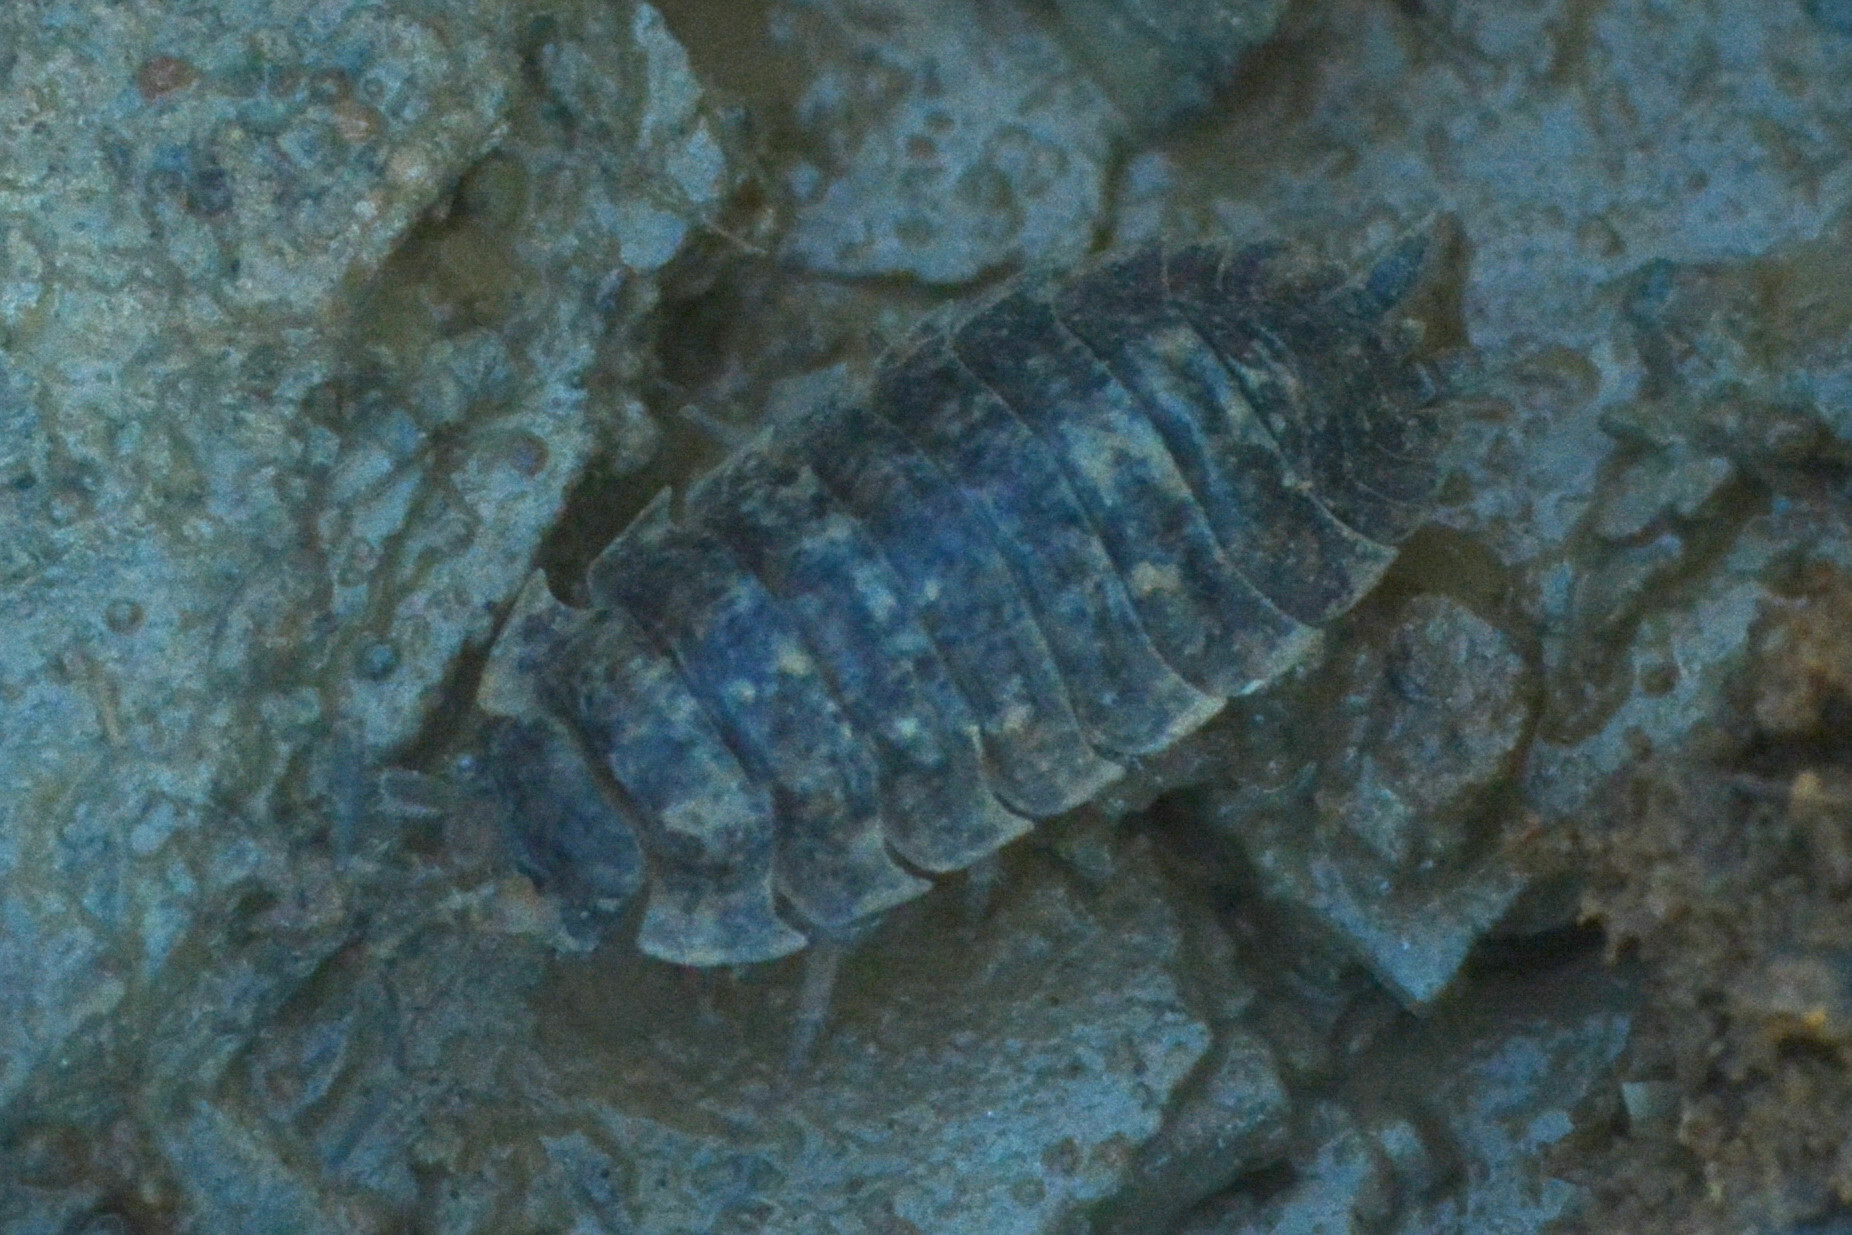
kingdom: Animalia
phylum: Arthropoda
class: Malacostraca
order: Isopoda
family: Porcellionidae
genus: Porcellio
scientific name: Porcellio scaber
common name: Common rough woodlouse
